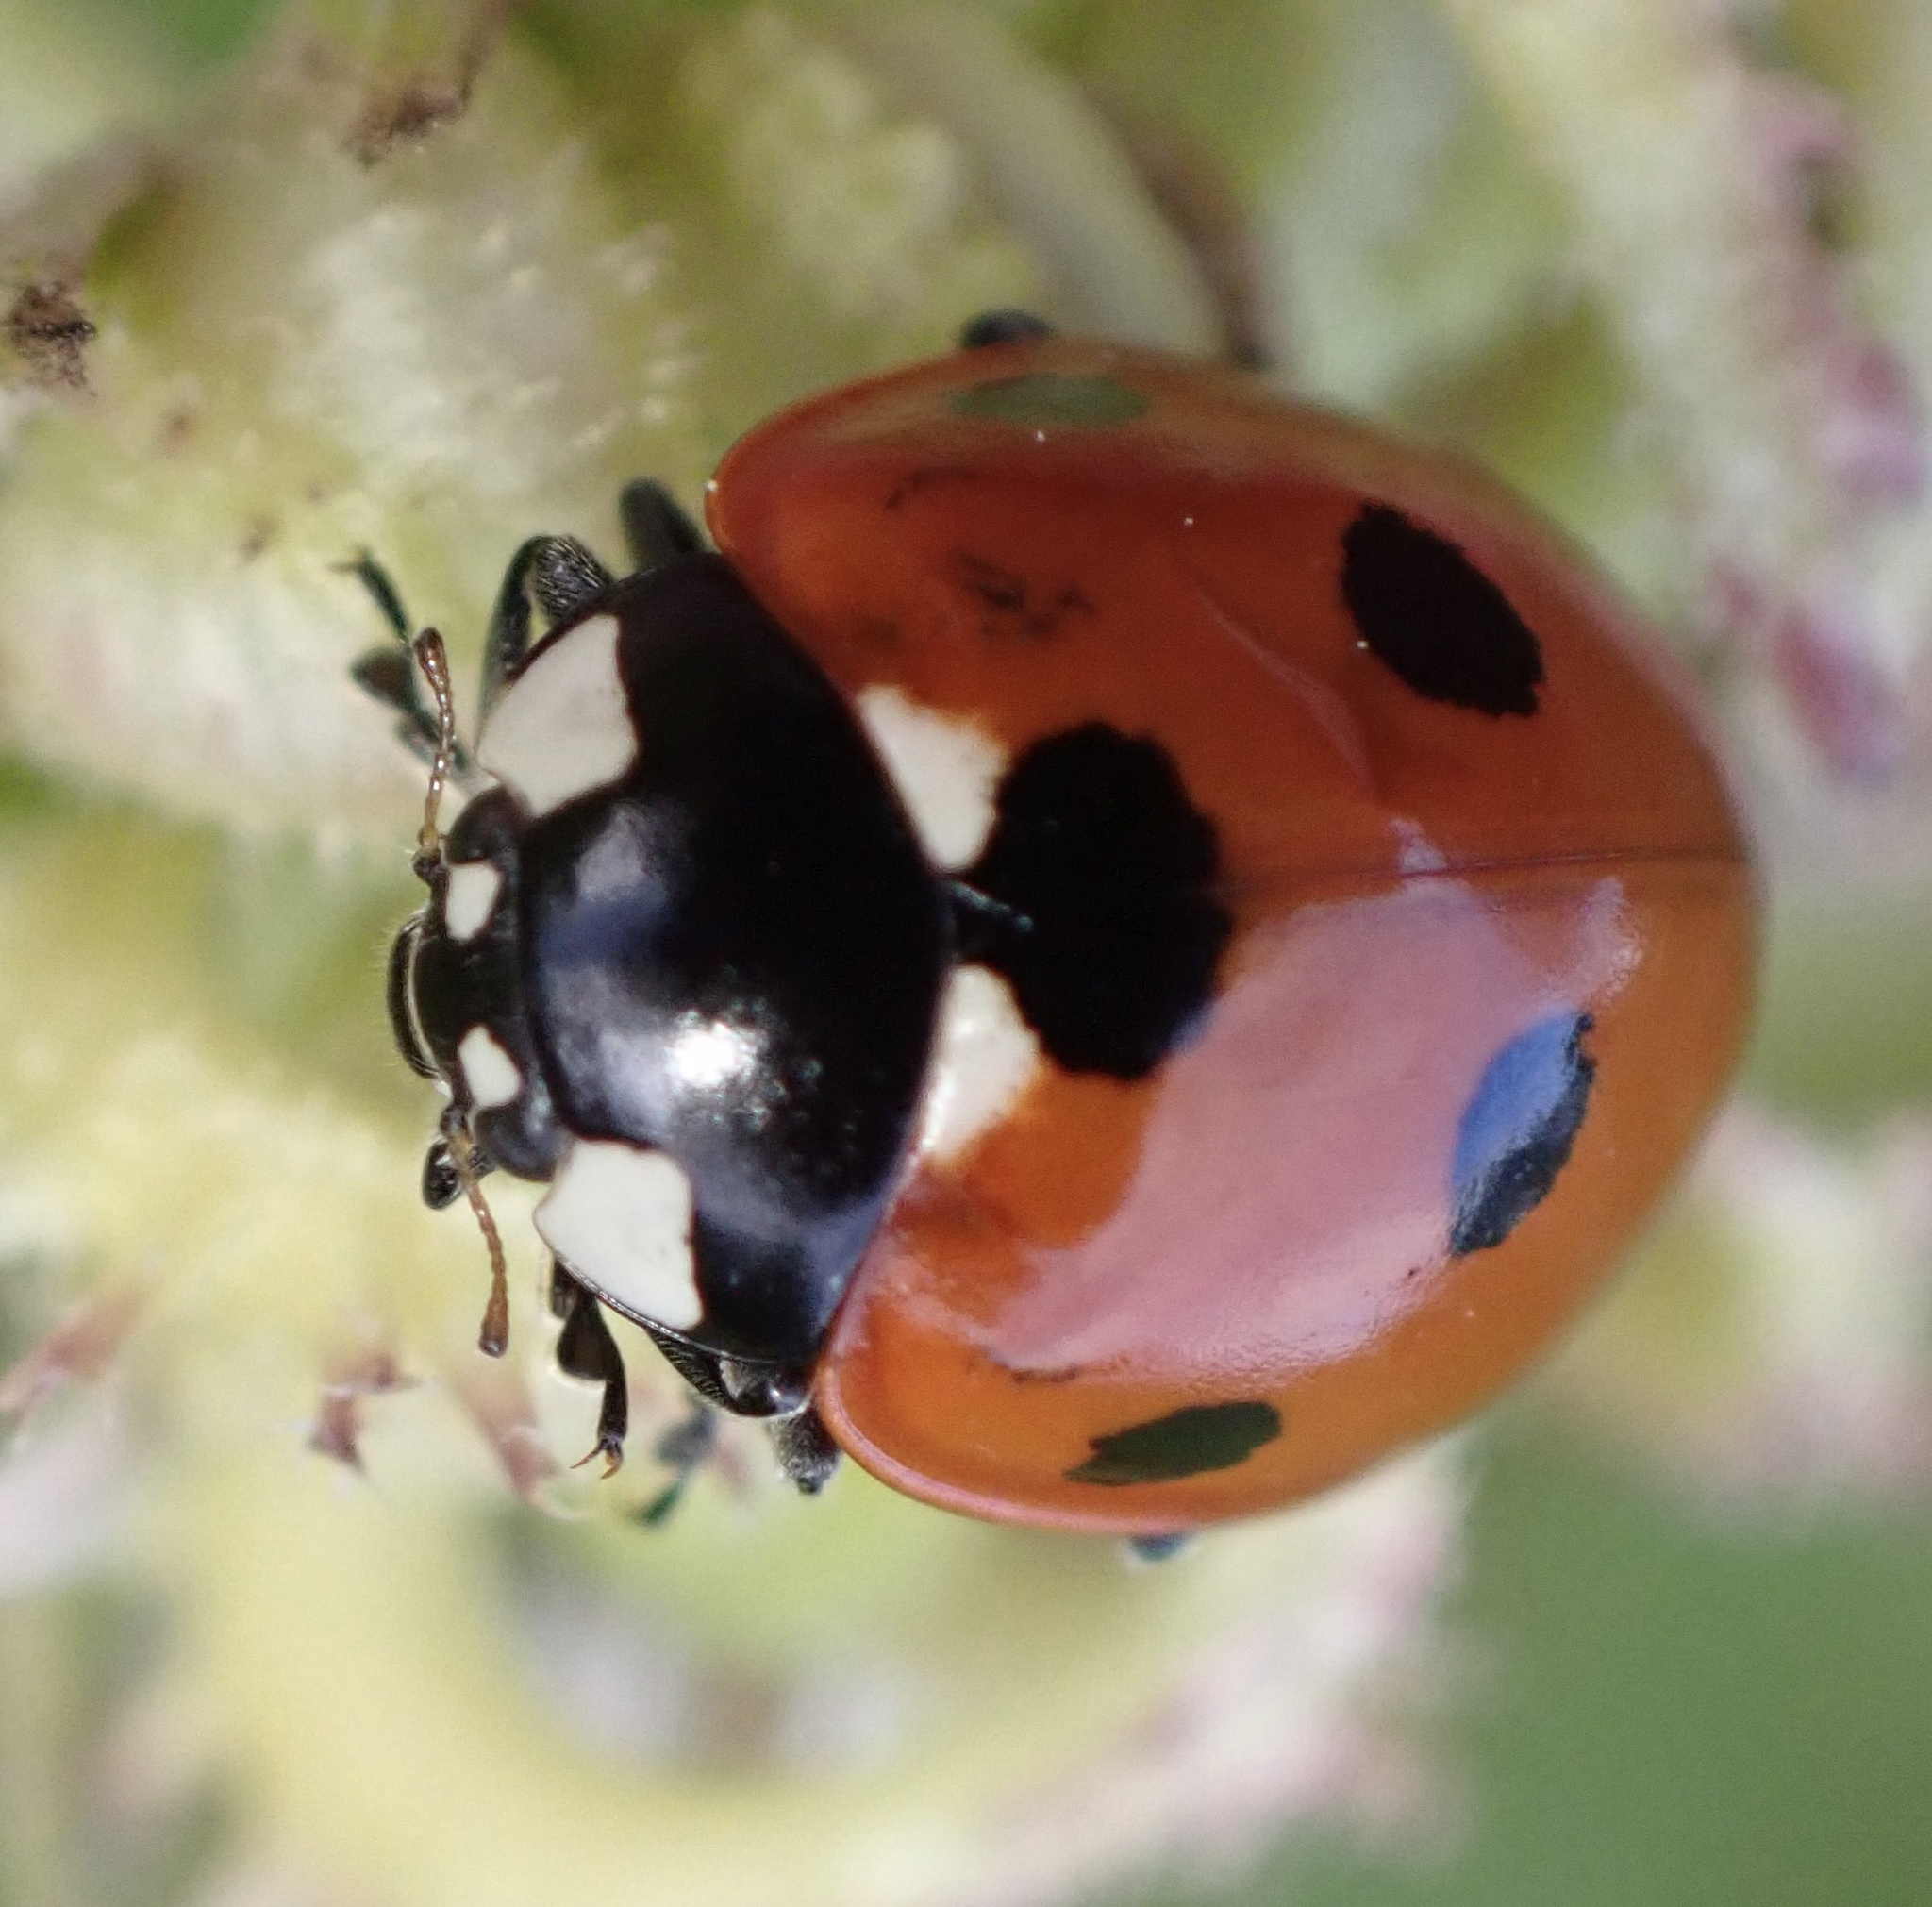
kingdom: Animalia
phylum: Arthropoda
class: Insecta
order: Coleoptera
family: Coccinellidae
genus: Coccinella
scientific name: Coccinella septempunctata
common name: Sevenspotted lady beetle
